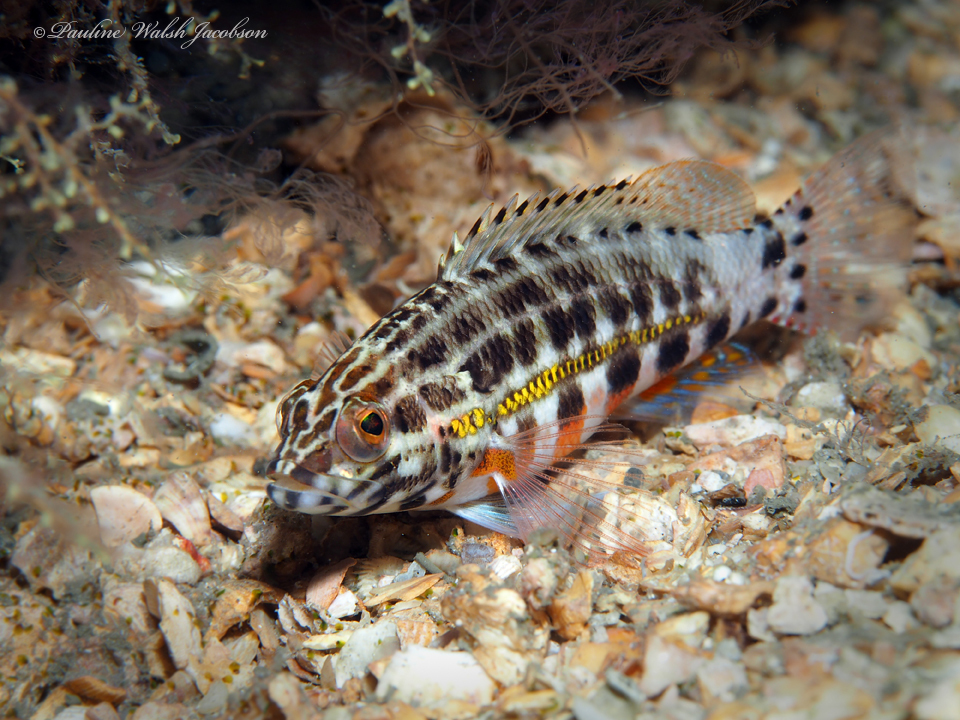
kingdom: Animalia
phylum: Chordata
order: Perciformes
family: Serranidae
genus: Serranus
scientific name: Serranus baldwini
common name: Lantern bass
